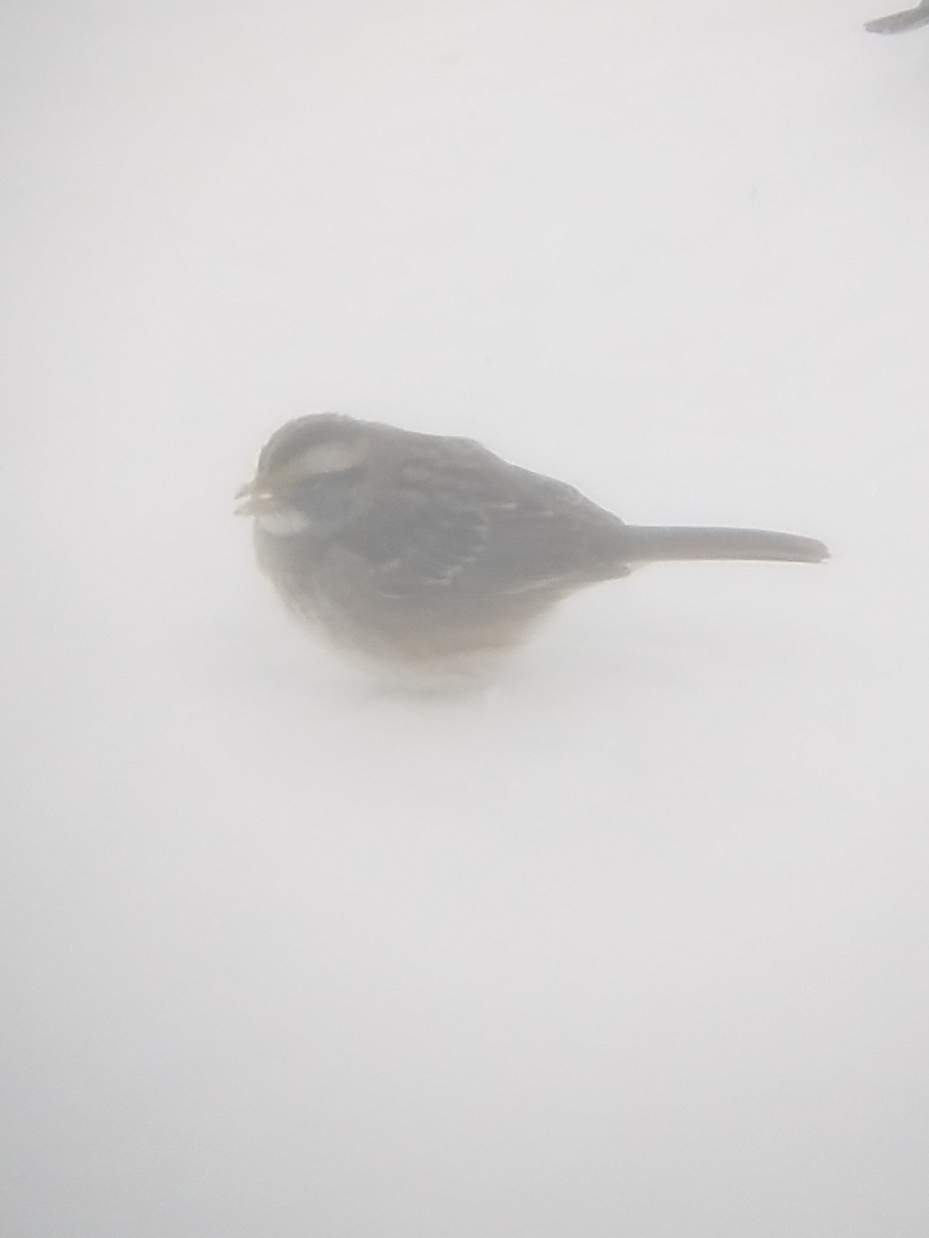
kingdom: Animalia
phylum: Chordata
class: Aves
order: Passeriformes
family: Passerellidae
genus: Zonotrichia
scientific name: Zonotrichia albicollis
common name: White-throated sparrow
